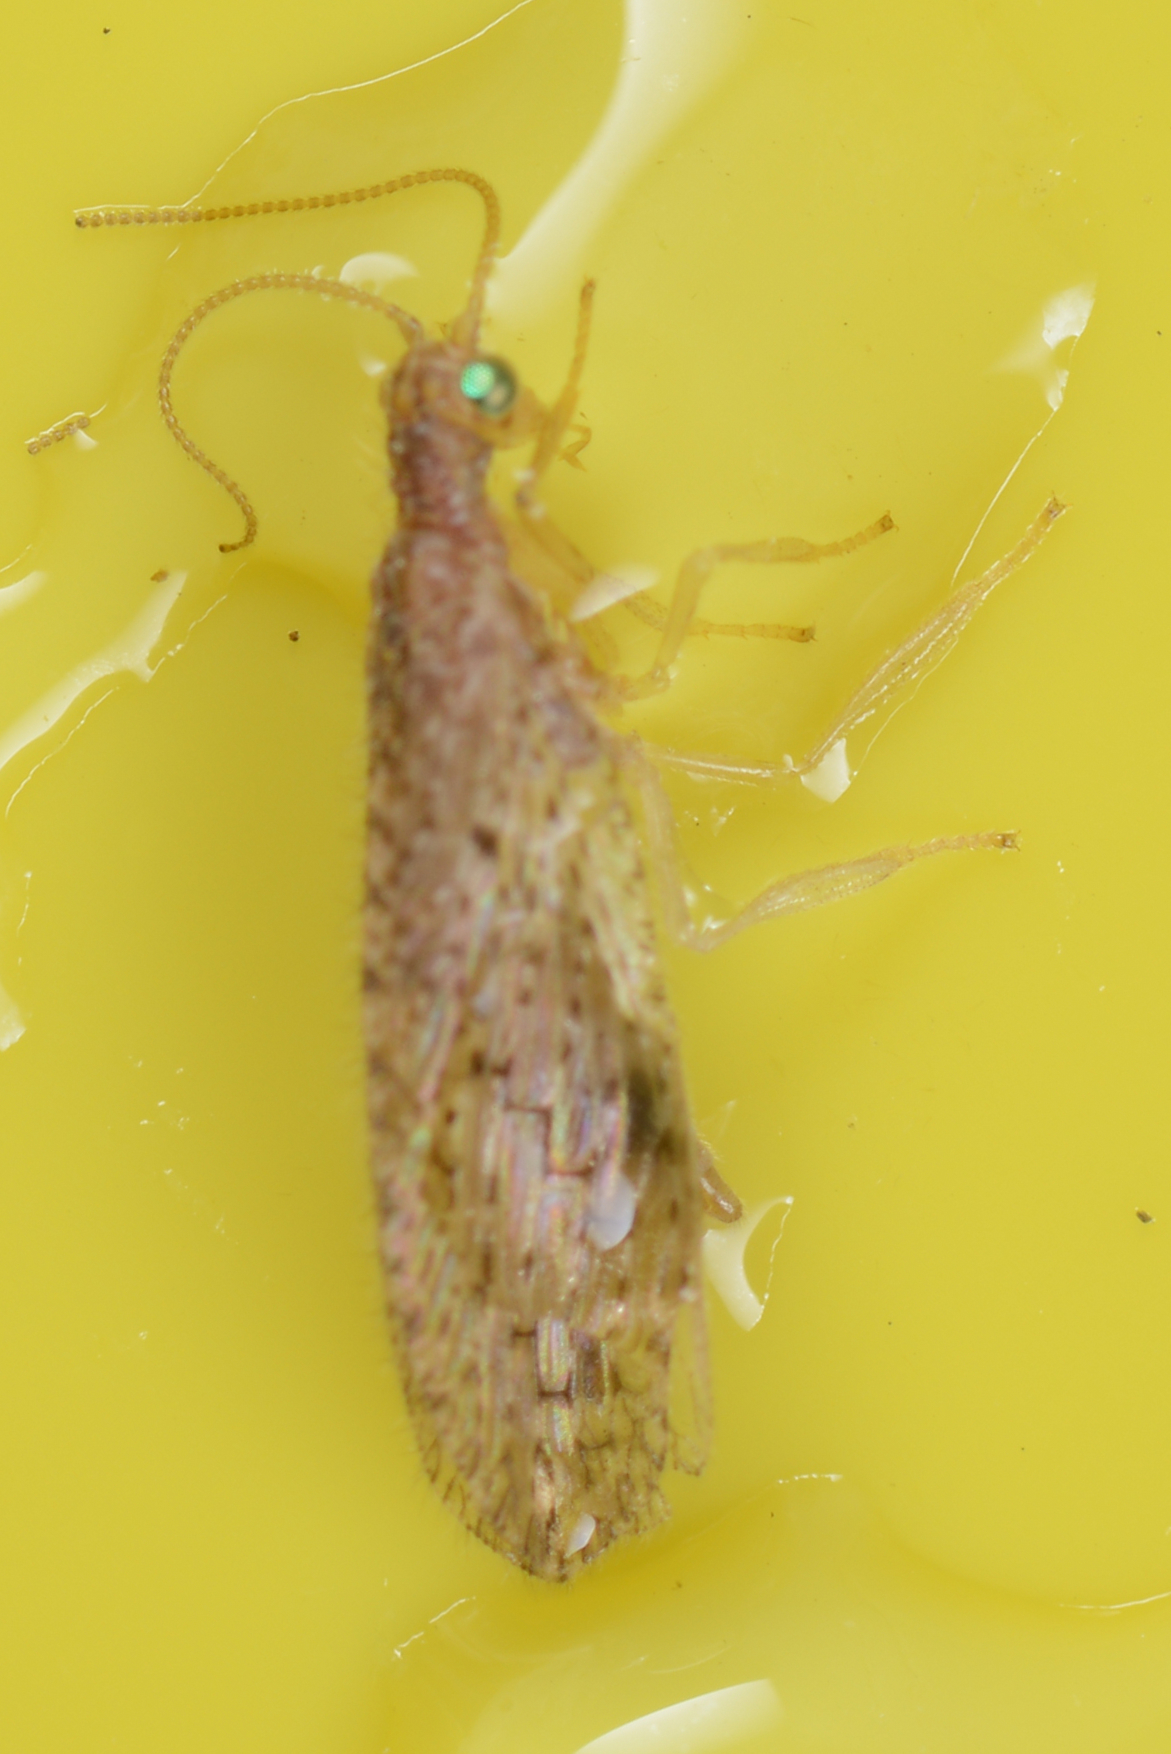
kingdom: Animalia
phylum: Arthropoda
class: Insecta
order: Neuroptera
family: Hemerobiidae
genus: Micromus
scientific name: Micromus tasmaniae
